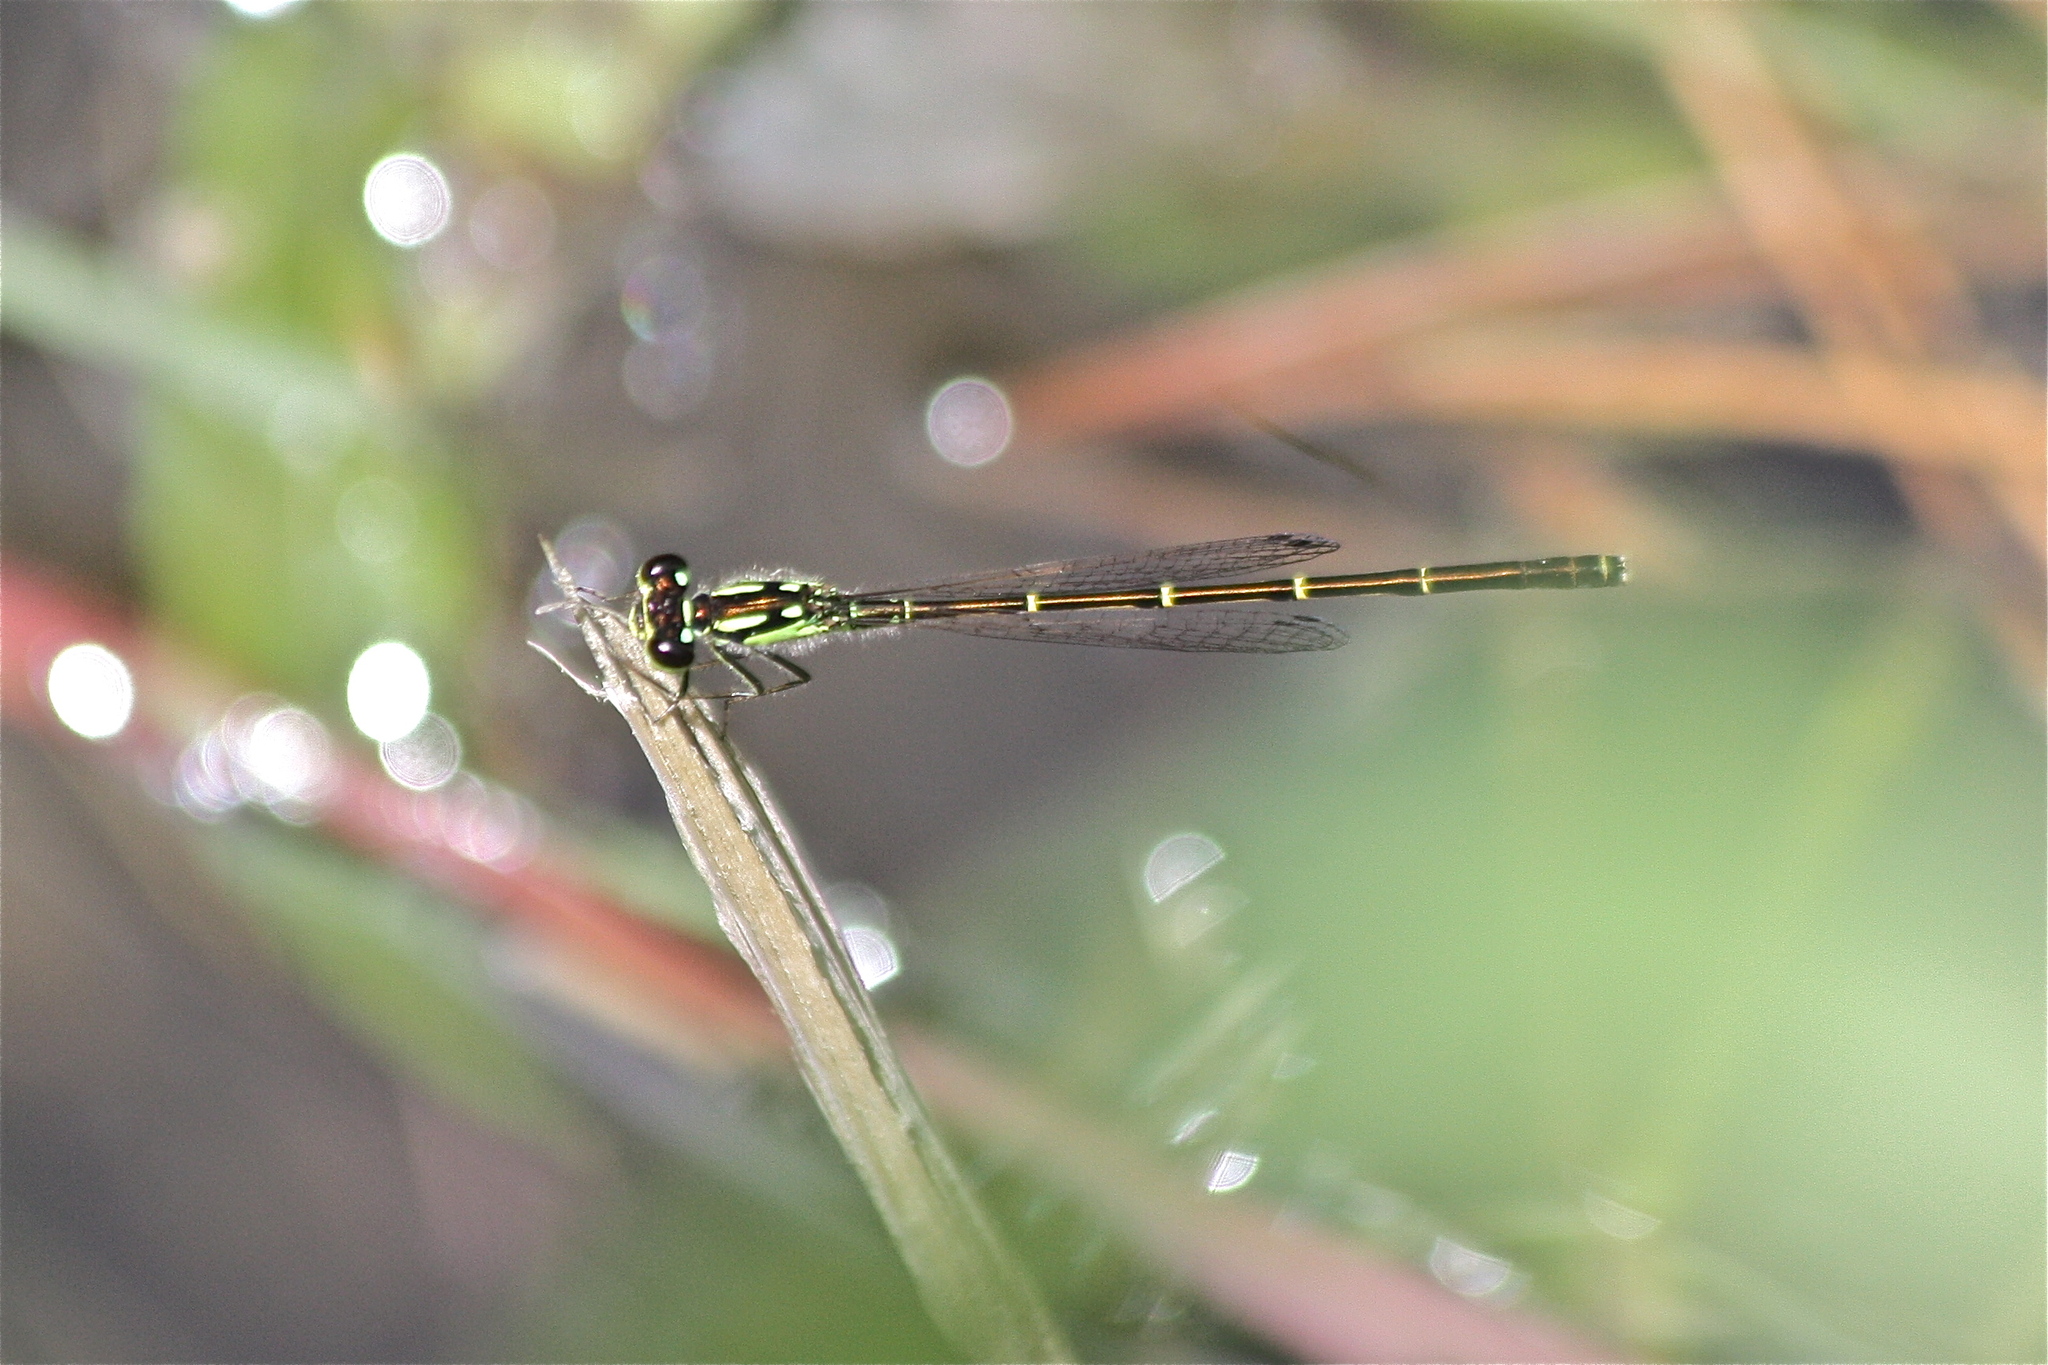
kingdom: Animalia
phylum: Arthropoda
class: Insecta
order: Odonata
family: Coenagrionidae
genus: Ischnura
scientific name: Ischnura posita
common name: Fragile forktail
